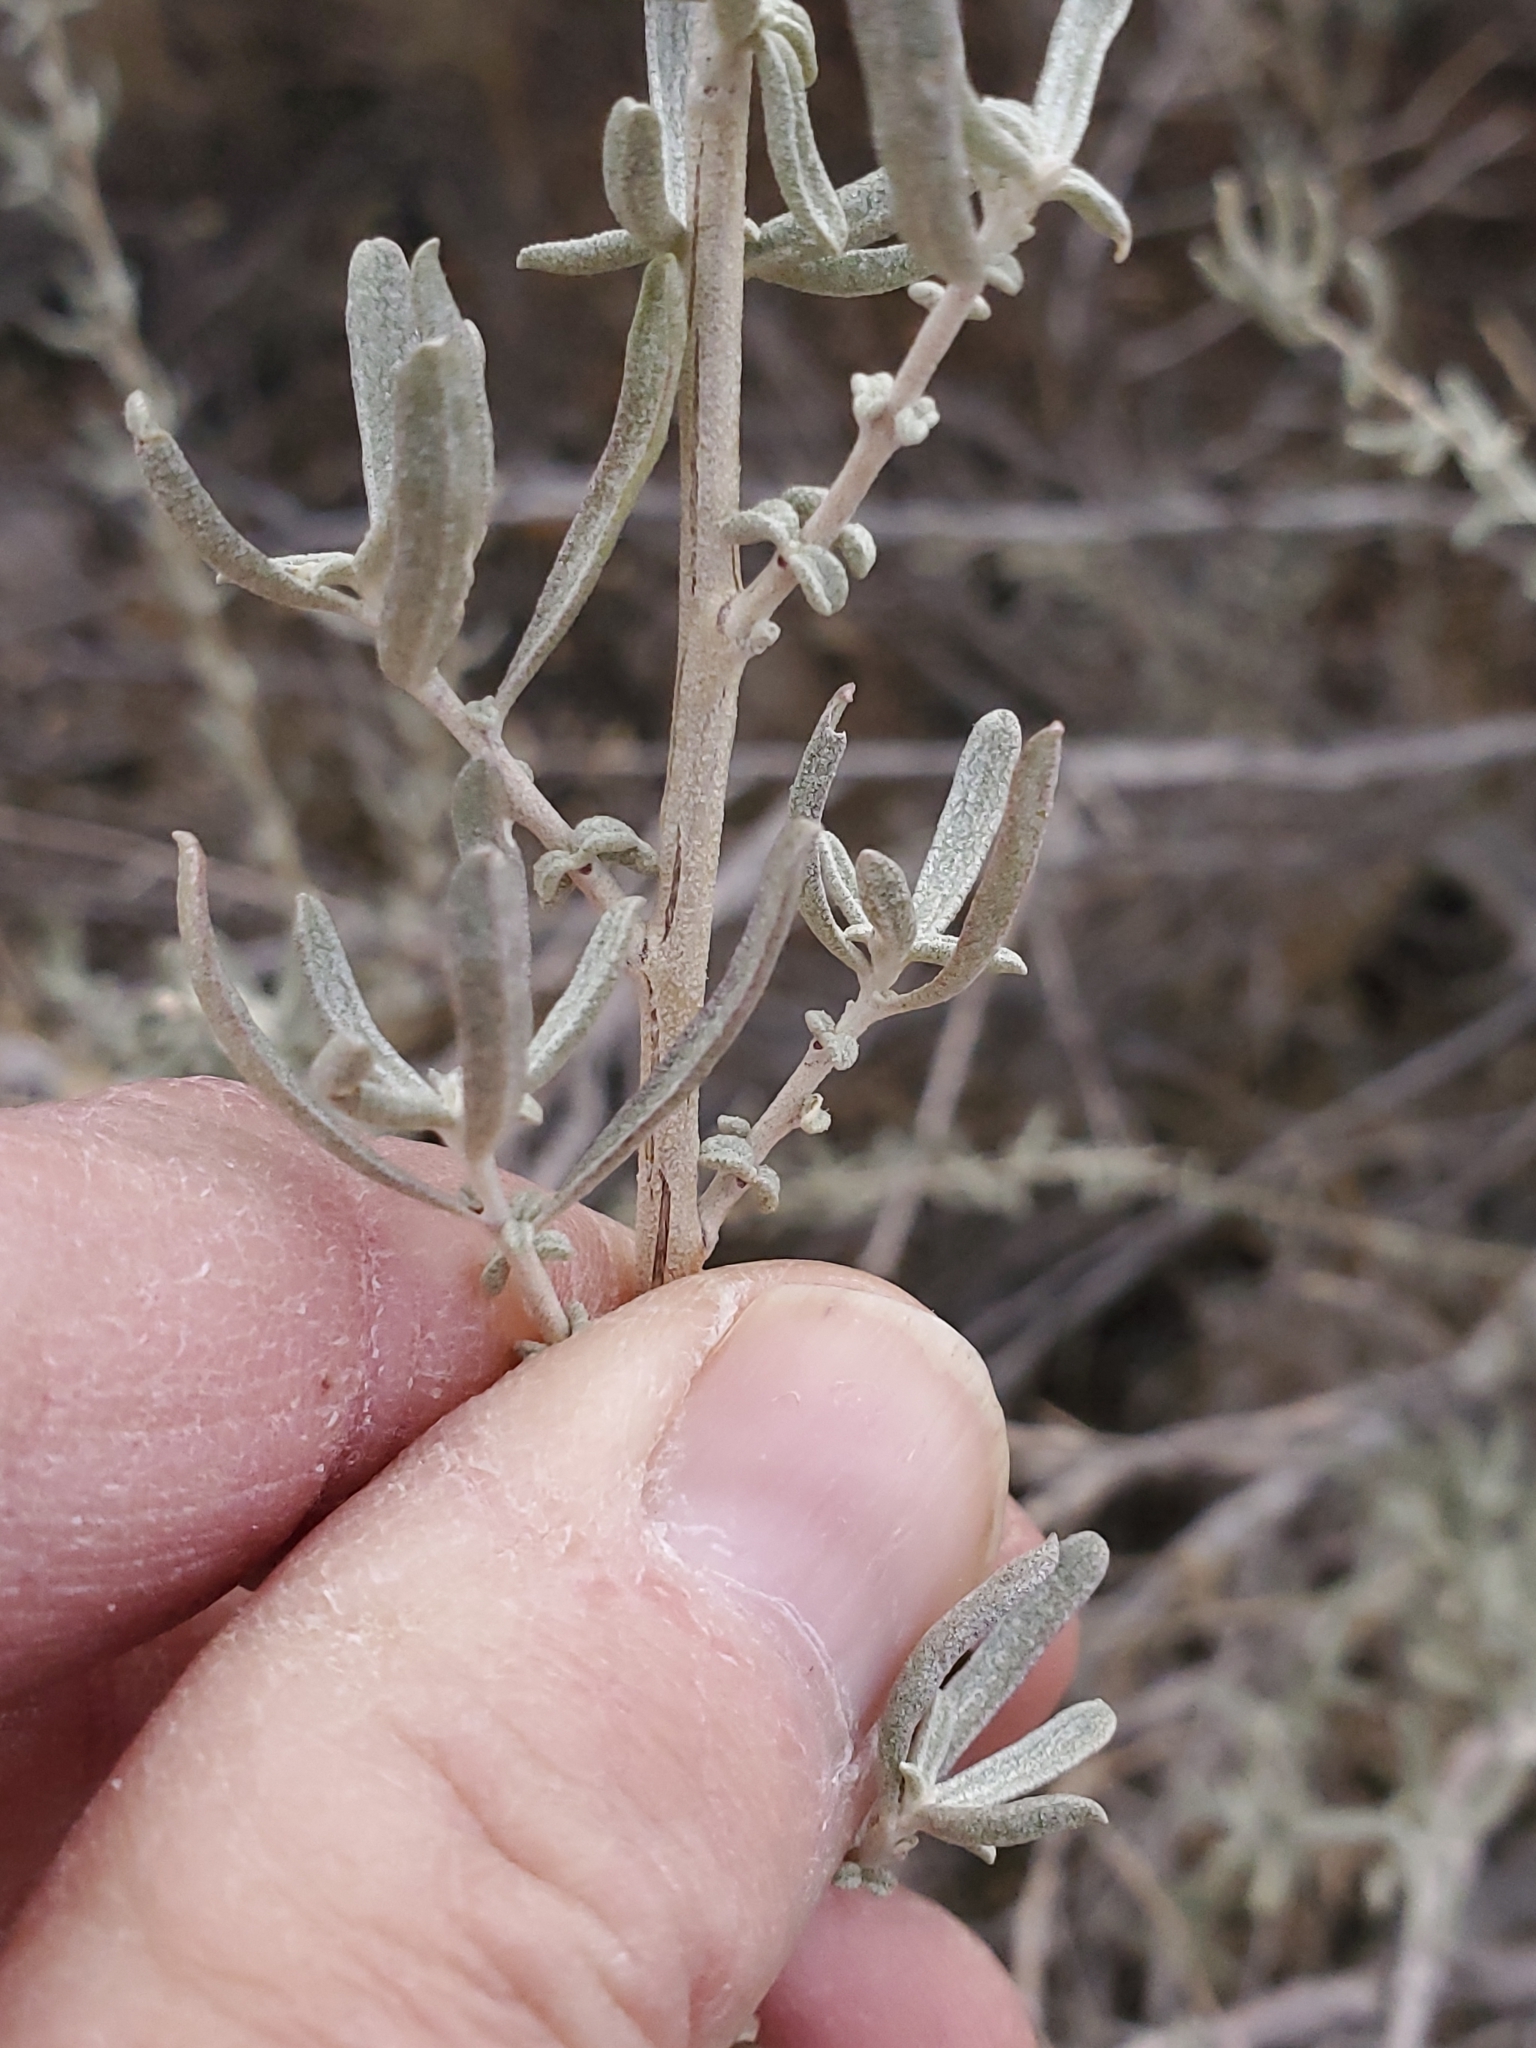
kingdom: Plantae
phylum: Tracheophyta
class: Magnoliopsida
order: Caryophyllales
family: Amaranthaceae
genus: Atriplex
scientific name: Atriplex canescens
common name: Four-wing saltbush
